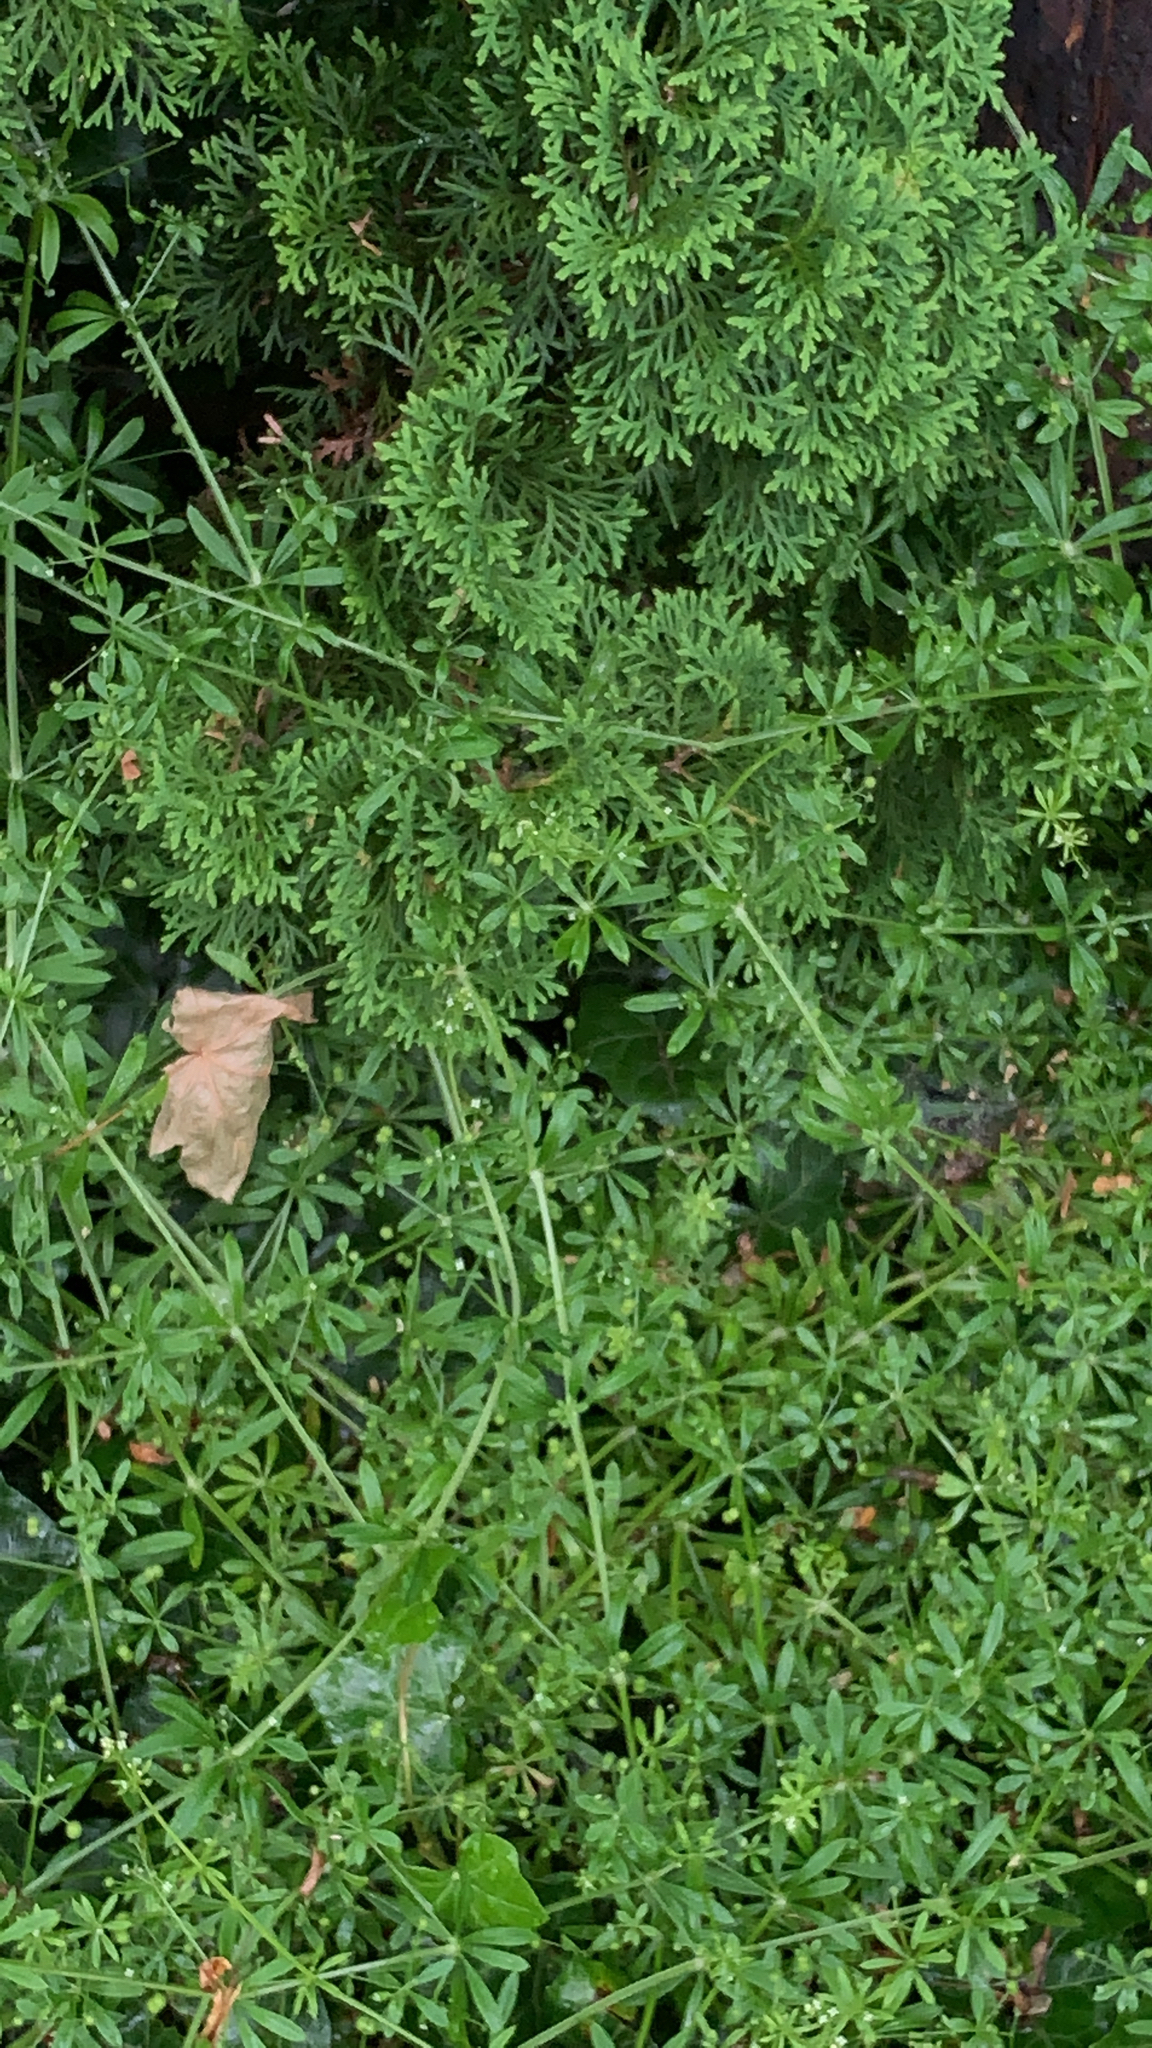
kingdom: Plantae
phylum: Tracheophyta
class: Magnoliopsida
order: Gentianales
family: Rubiaceae
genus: Galium
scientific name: Galium aparine
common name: Cleavers
